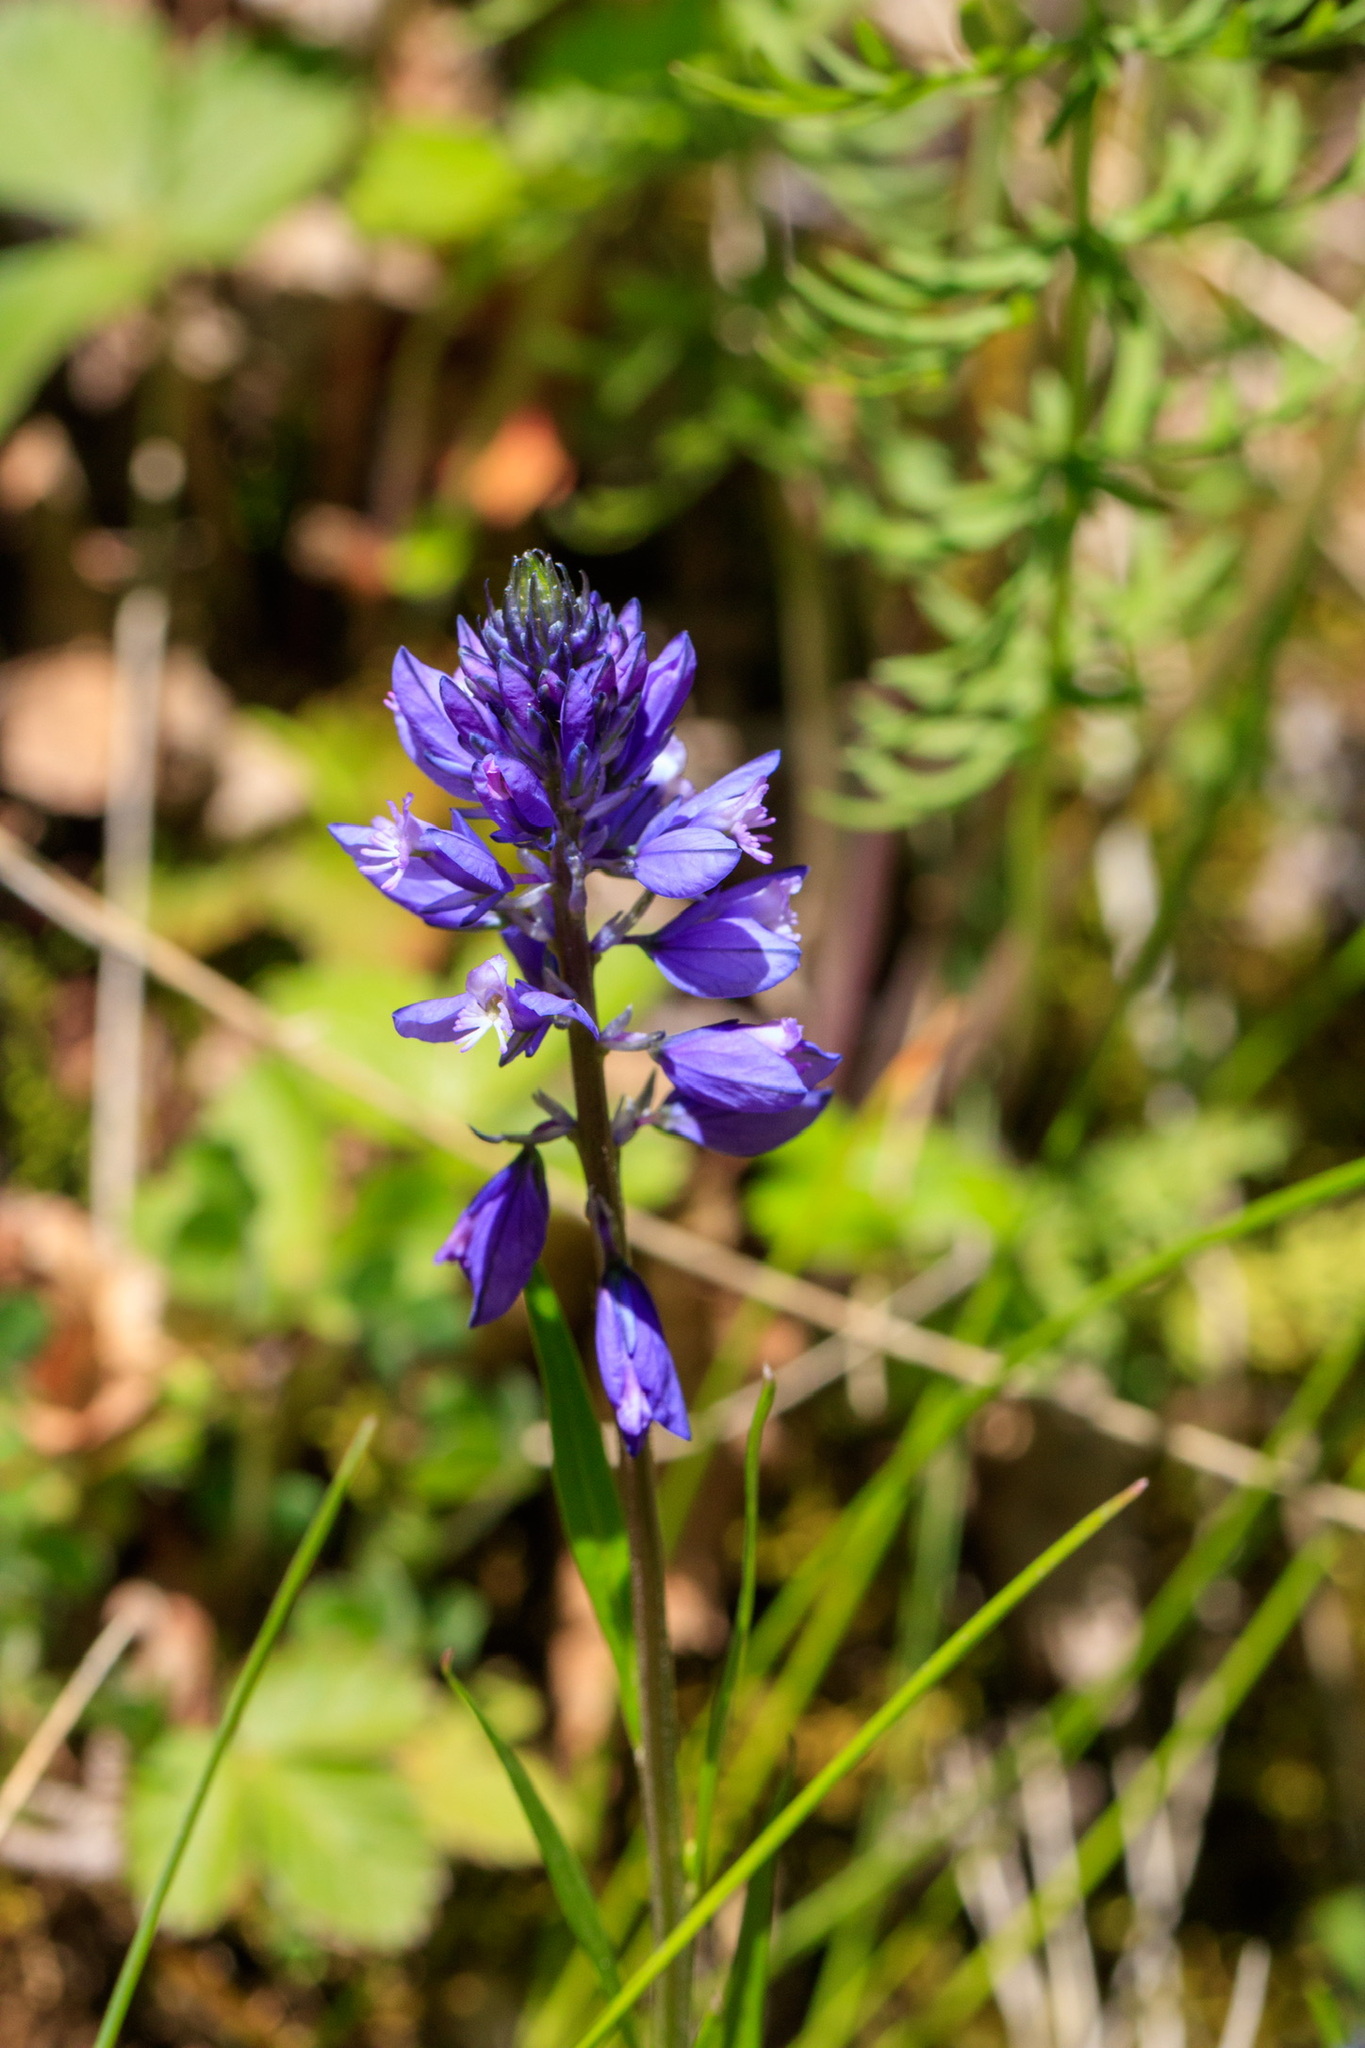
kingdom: Plantae
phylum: Tracheophyta
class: Magnoliopsida
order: Fabales
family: Polygalaceae
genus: Polygala
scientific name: Polygala comosa
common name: Tufted milkwort
